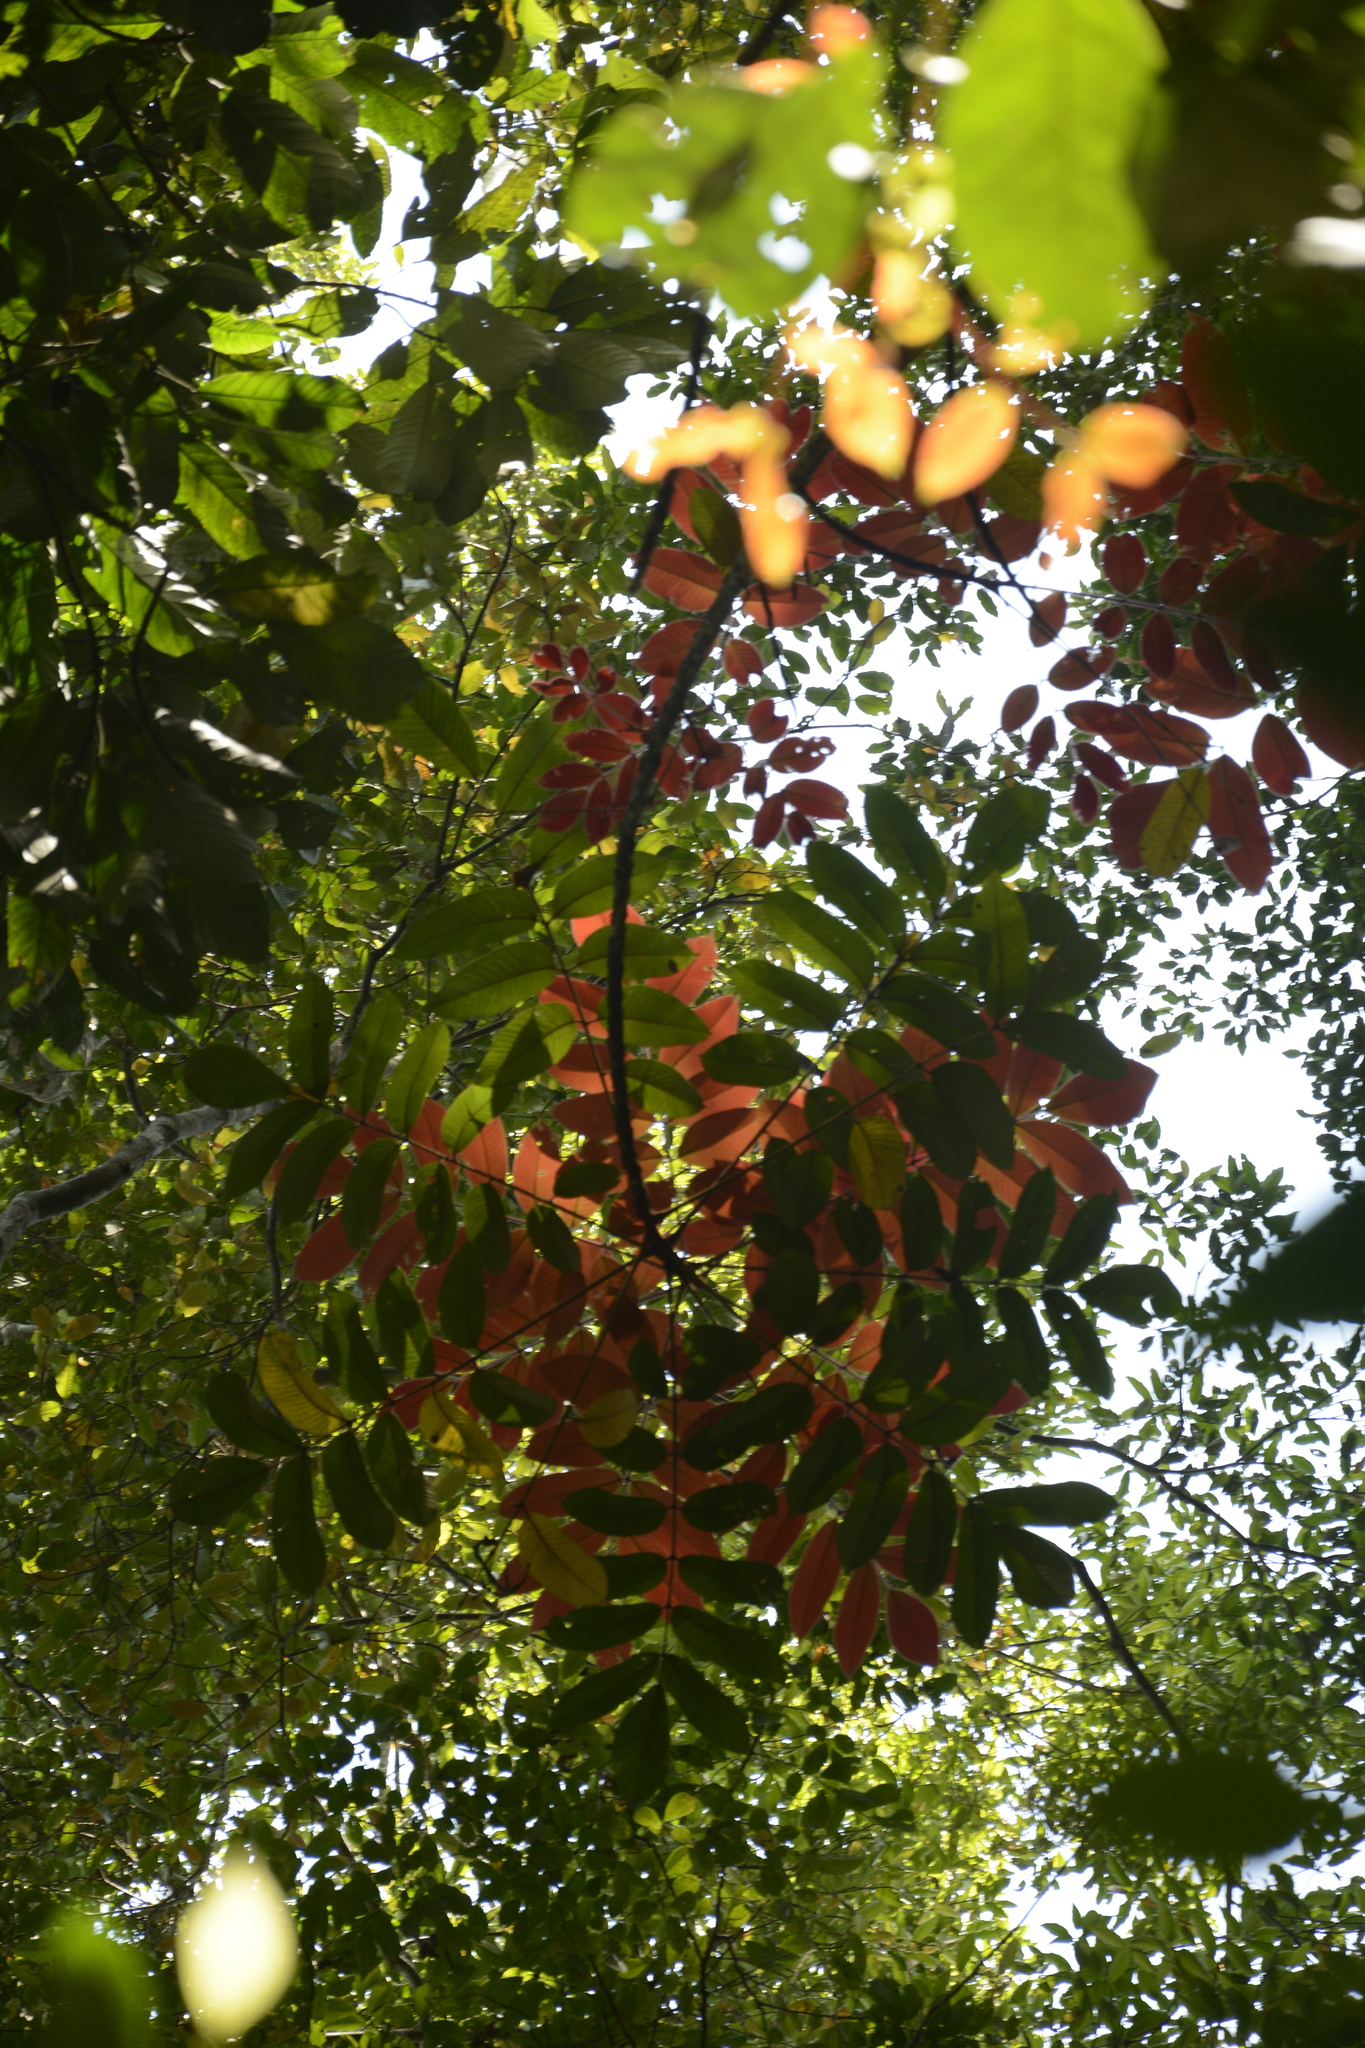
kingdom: Plantae
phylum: Tracheophyta
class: Magnoliopsida
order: Sapindales
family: Burseraceae
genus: Canarium
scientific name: Canarium strictum
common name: Indian white-mahogany
